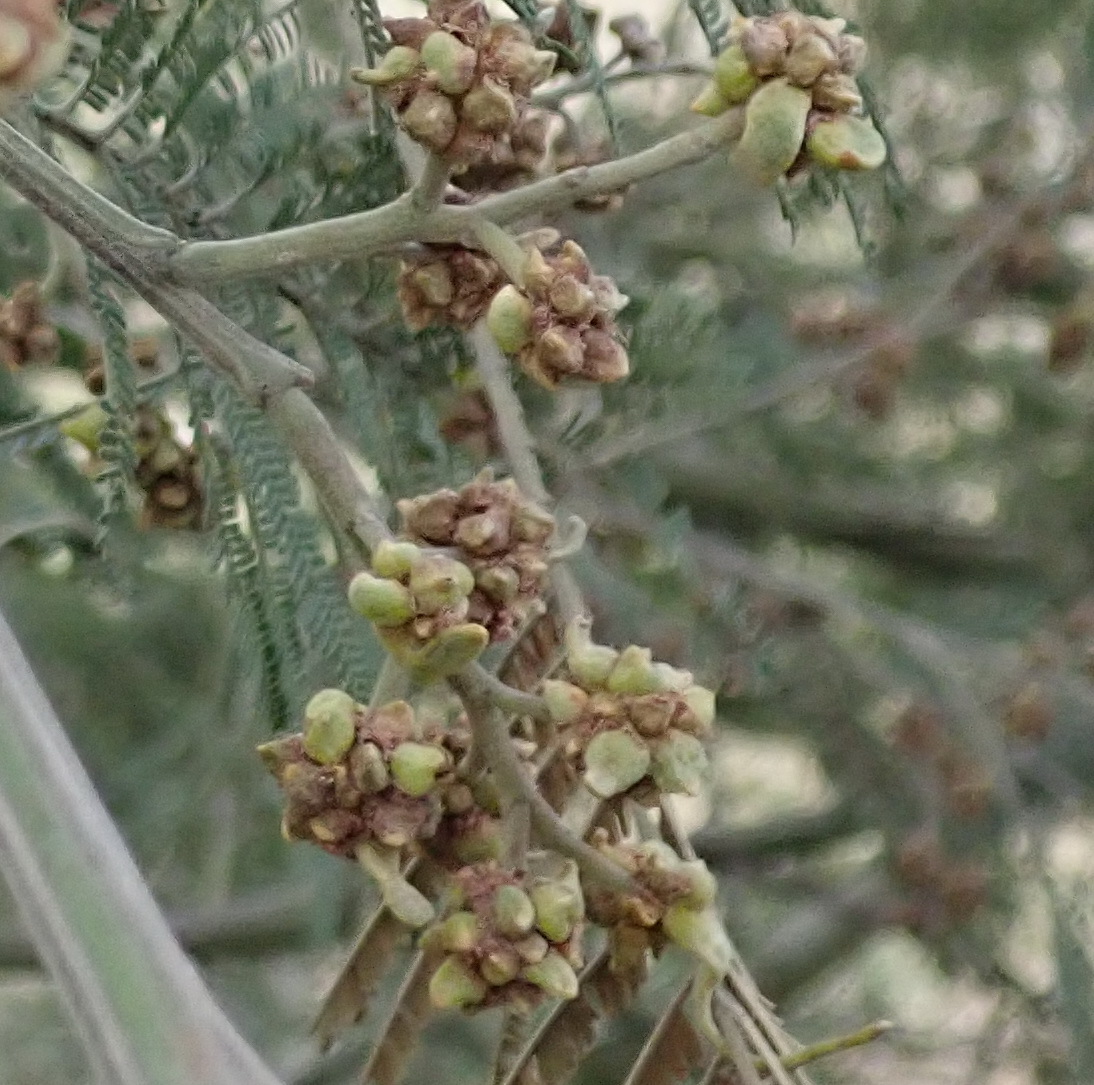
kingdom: Animalia
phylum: Arthropoda
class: Insecta
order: Diptera
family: Cecidomyiidae
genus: Dasineura
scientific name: Dasineura rubiformis
